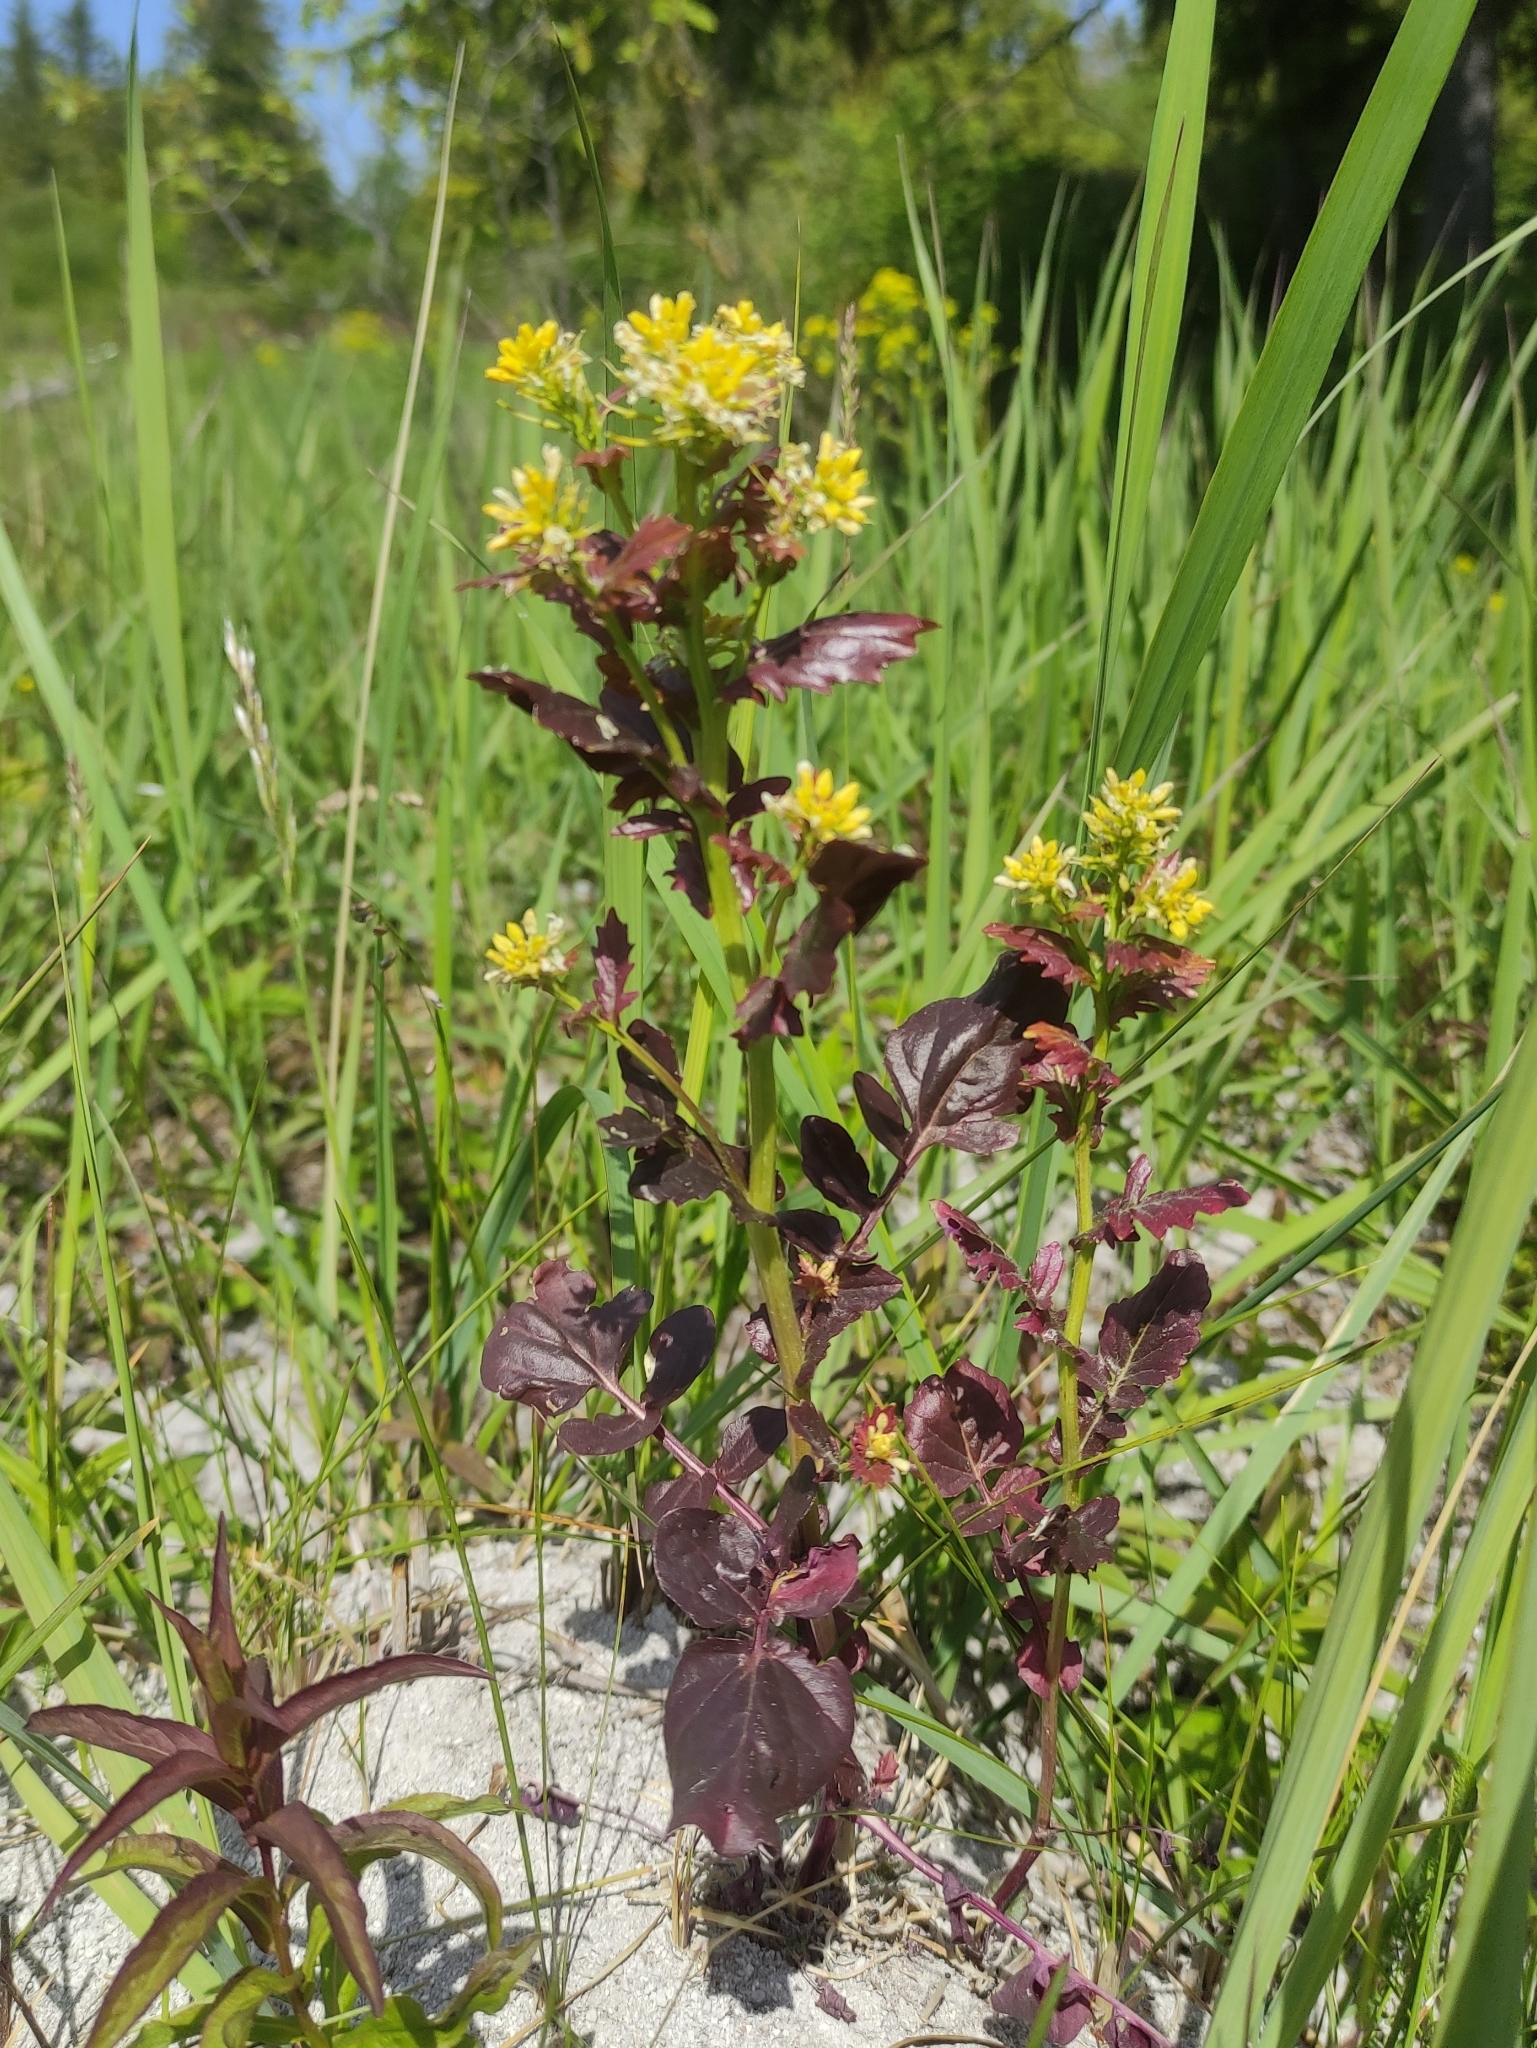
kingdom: Plantae
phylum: Tracheophyta
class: Magnoliopsida
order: Brassicales
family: Brassicaceae
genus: Barbarea
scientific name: Barbarea vulgaris
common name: Cressy-greens
